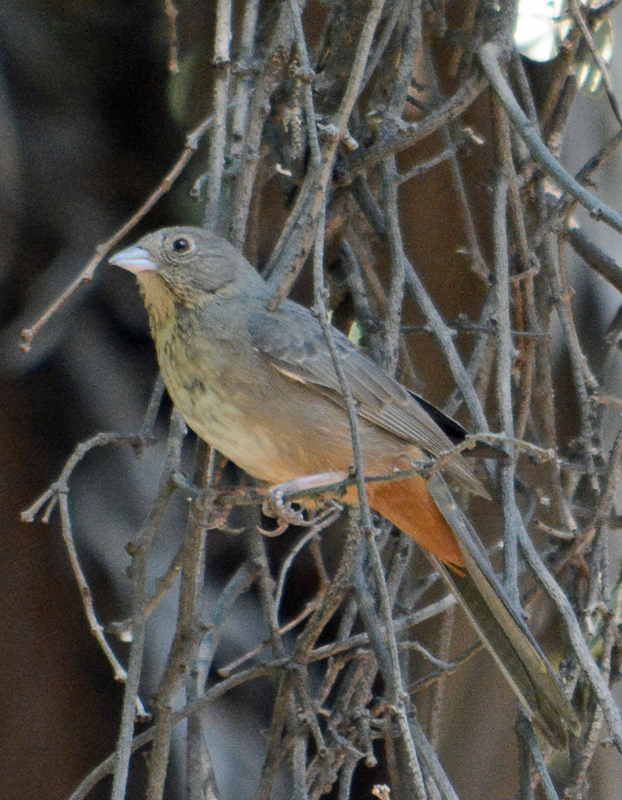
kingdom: Animalia
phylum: Chordata
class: Aves
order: Passeriformes
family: Passerellidae
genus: Melozone
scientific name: Melozone fusca
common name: Canyon towhee
